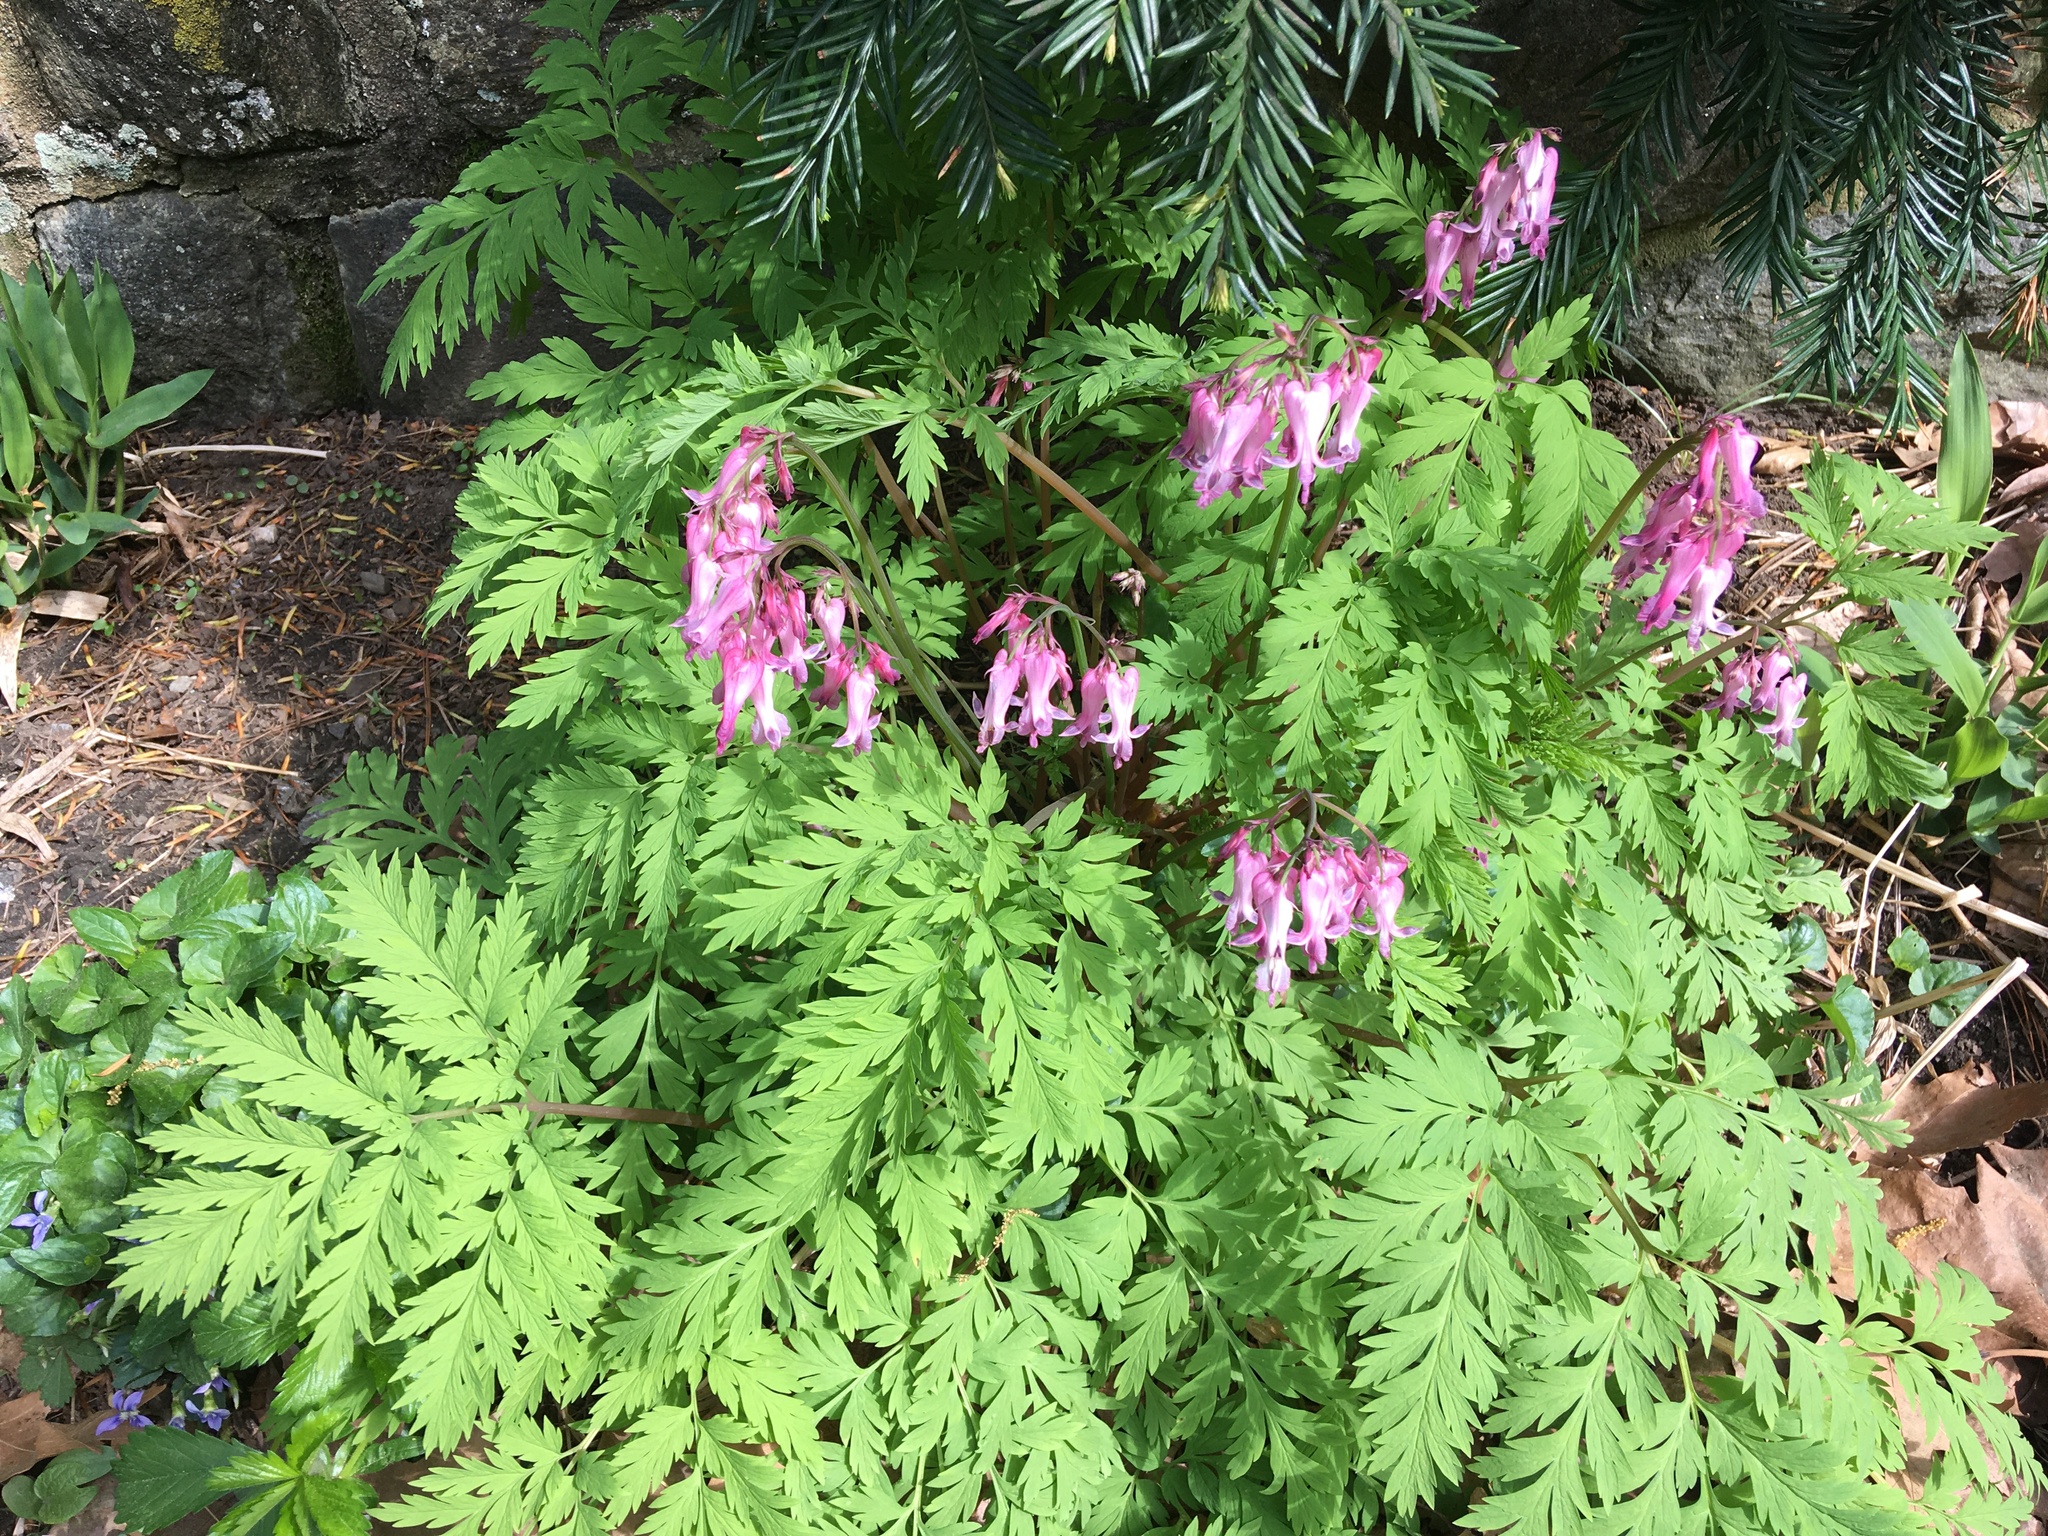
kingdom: Plantae
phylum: Tracheophyta
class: Magnoliopsida
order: Ranunculales
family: Papaveraceae
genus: Dicentra
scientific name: Dicentra eximia
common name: Turkey-corn
